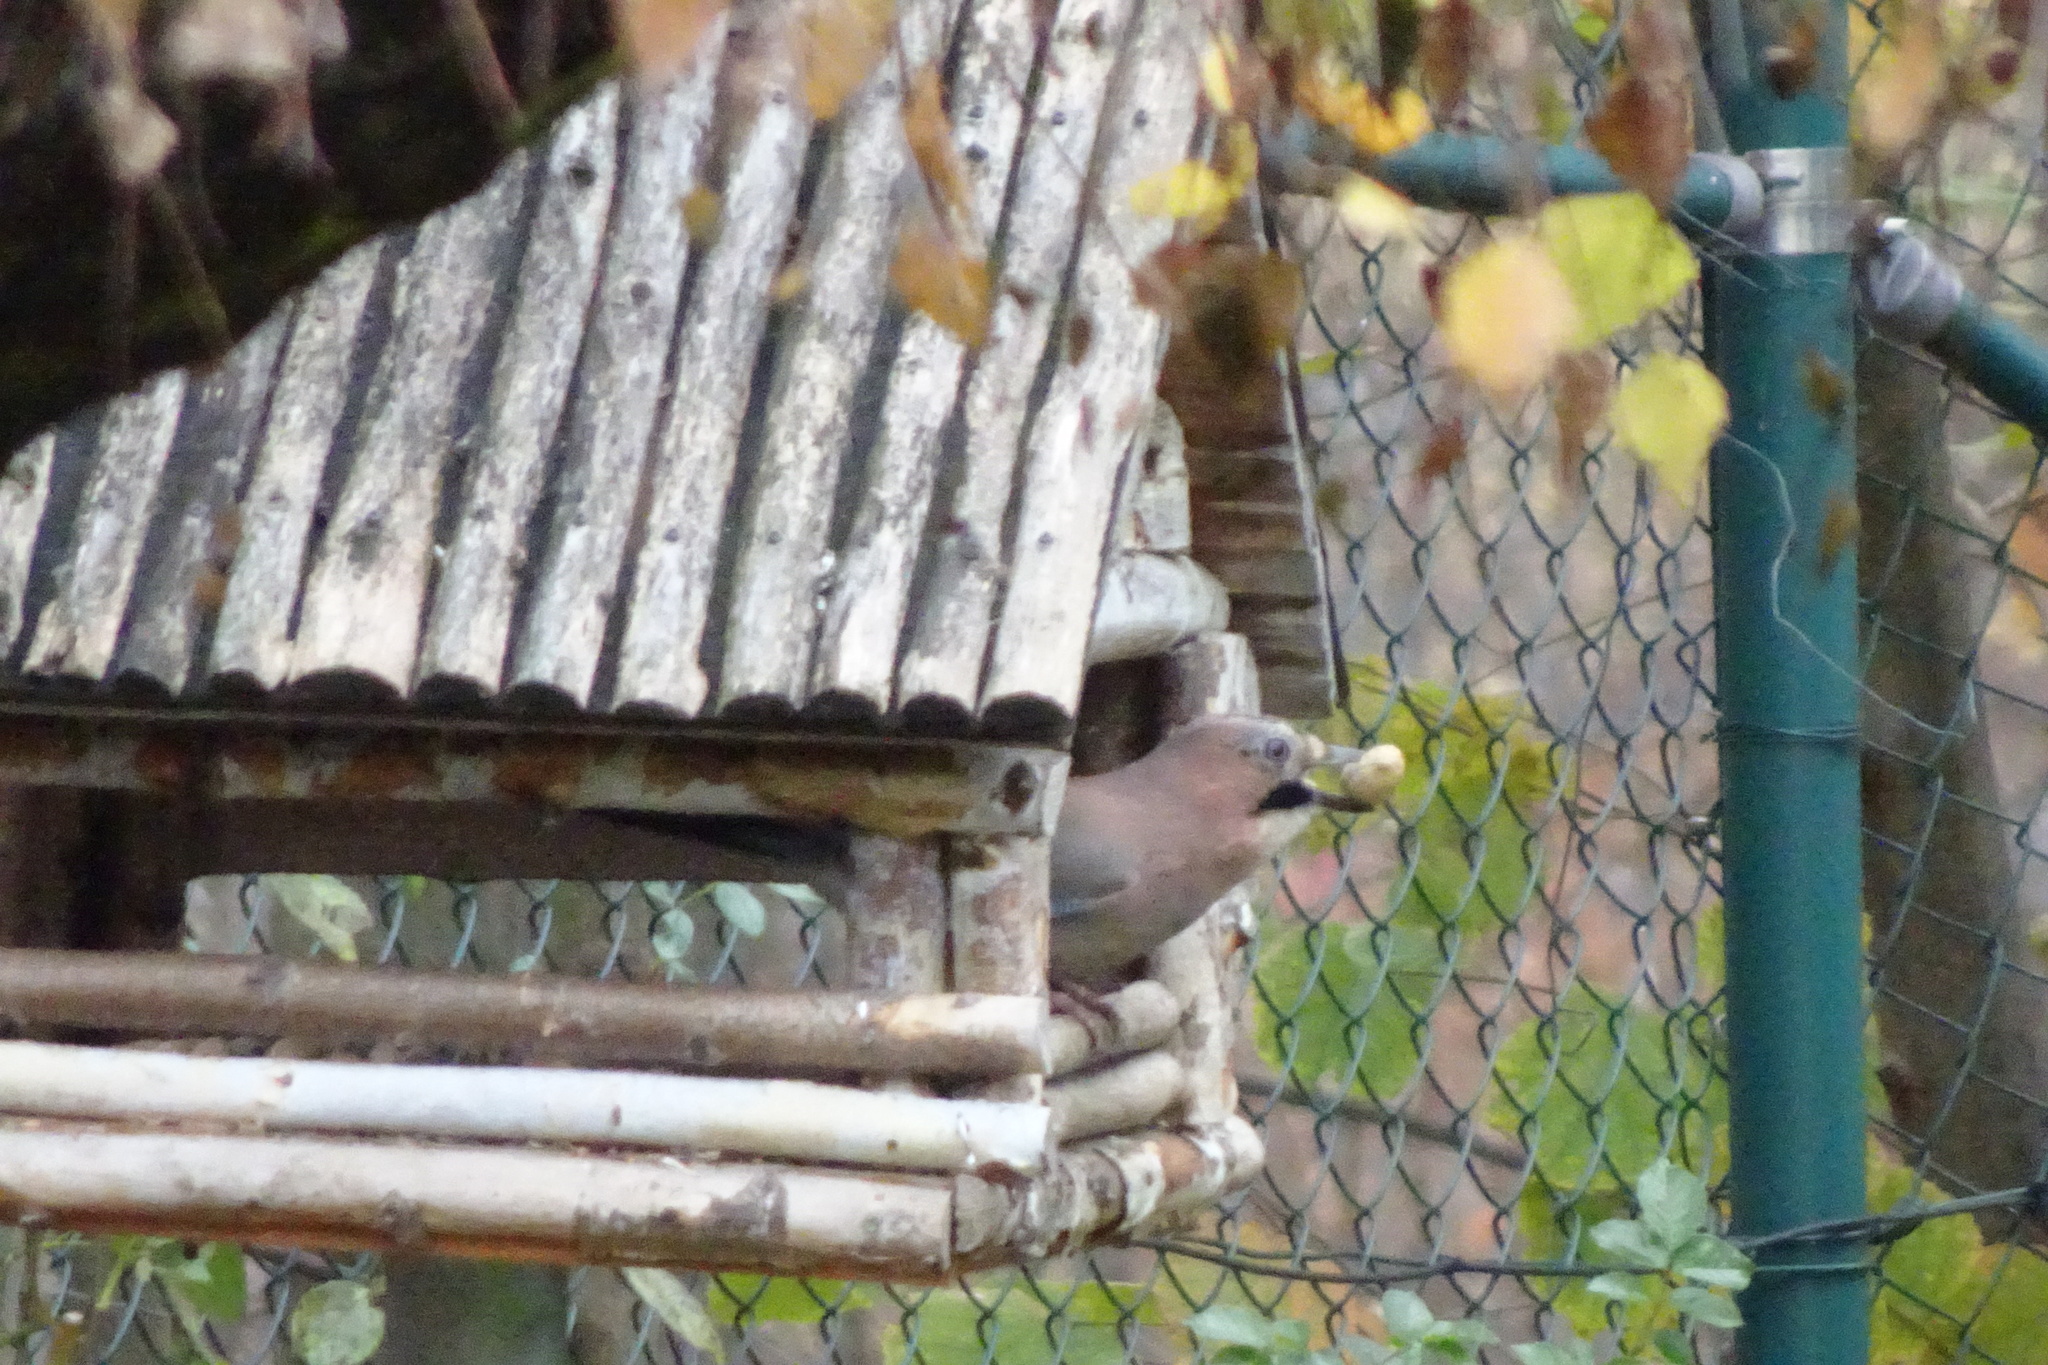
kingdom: Animalia
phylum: Chordata
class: Aves
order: Passeriformes
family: Corvidae
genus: Garrulus
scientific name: Garrulus glandarius
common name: Eurasian jay
